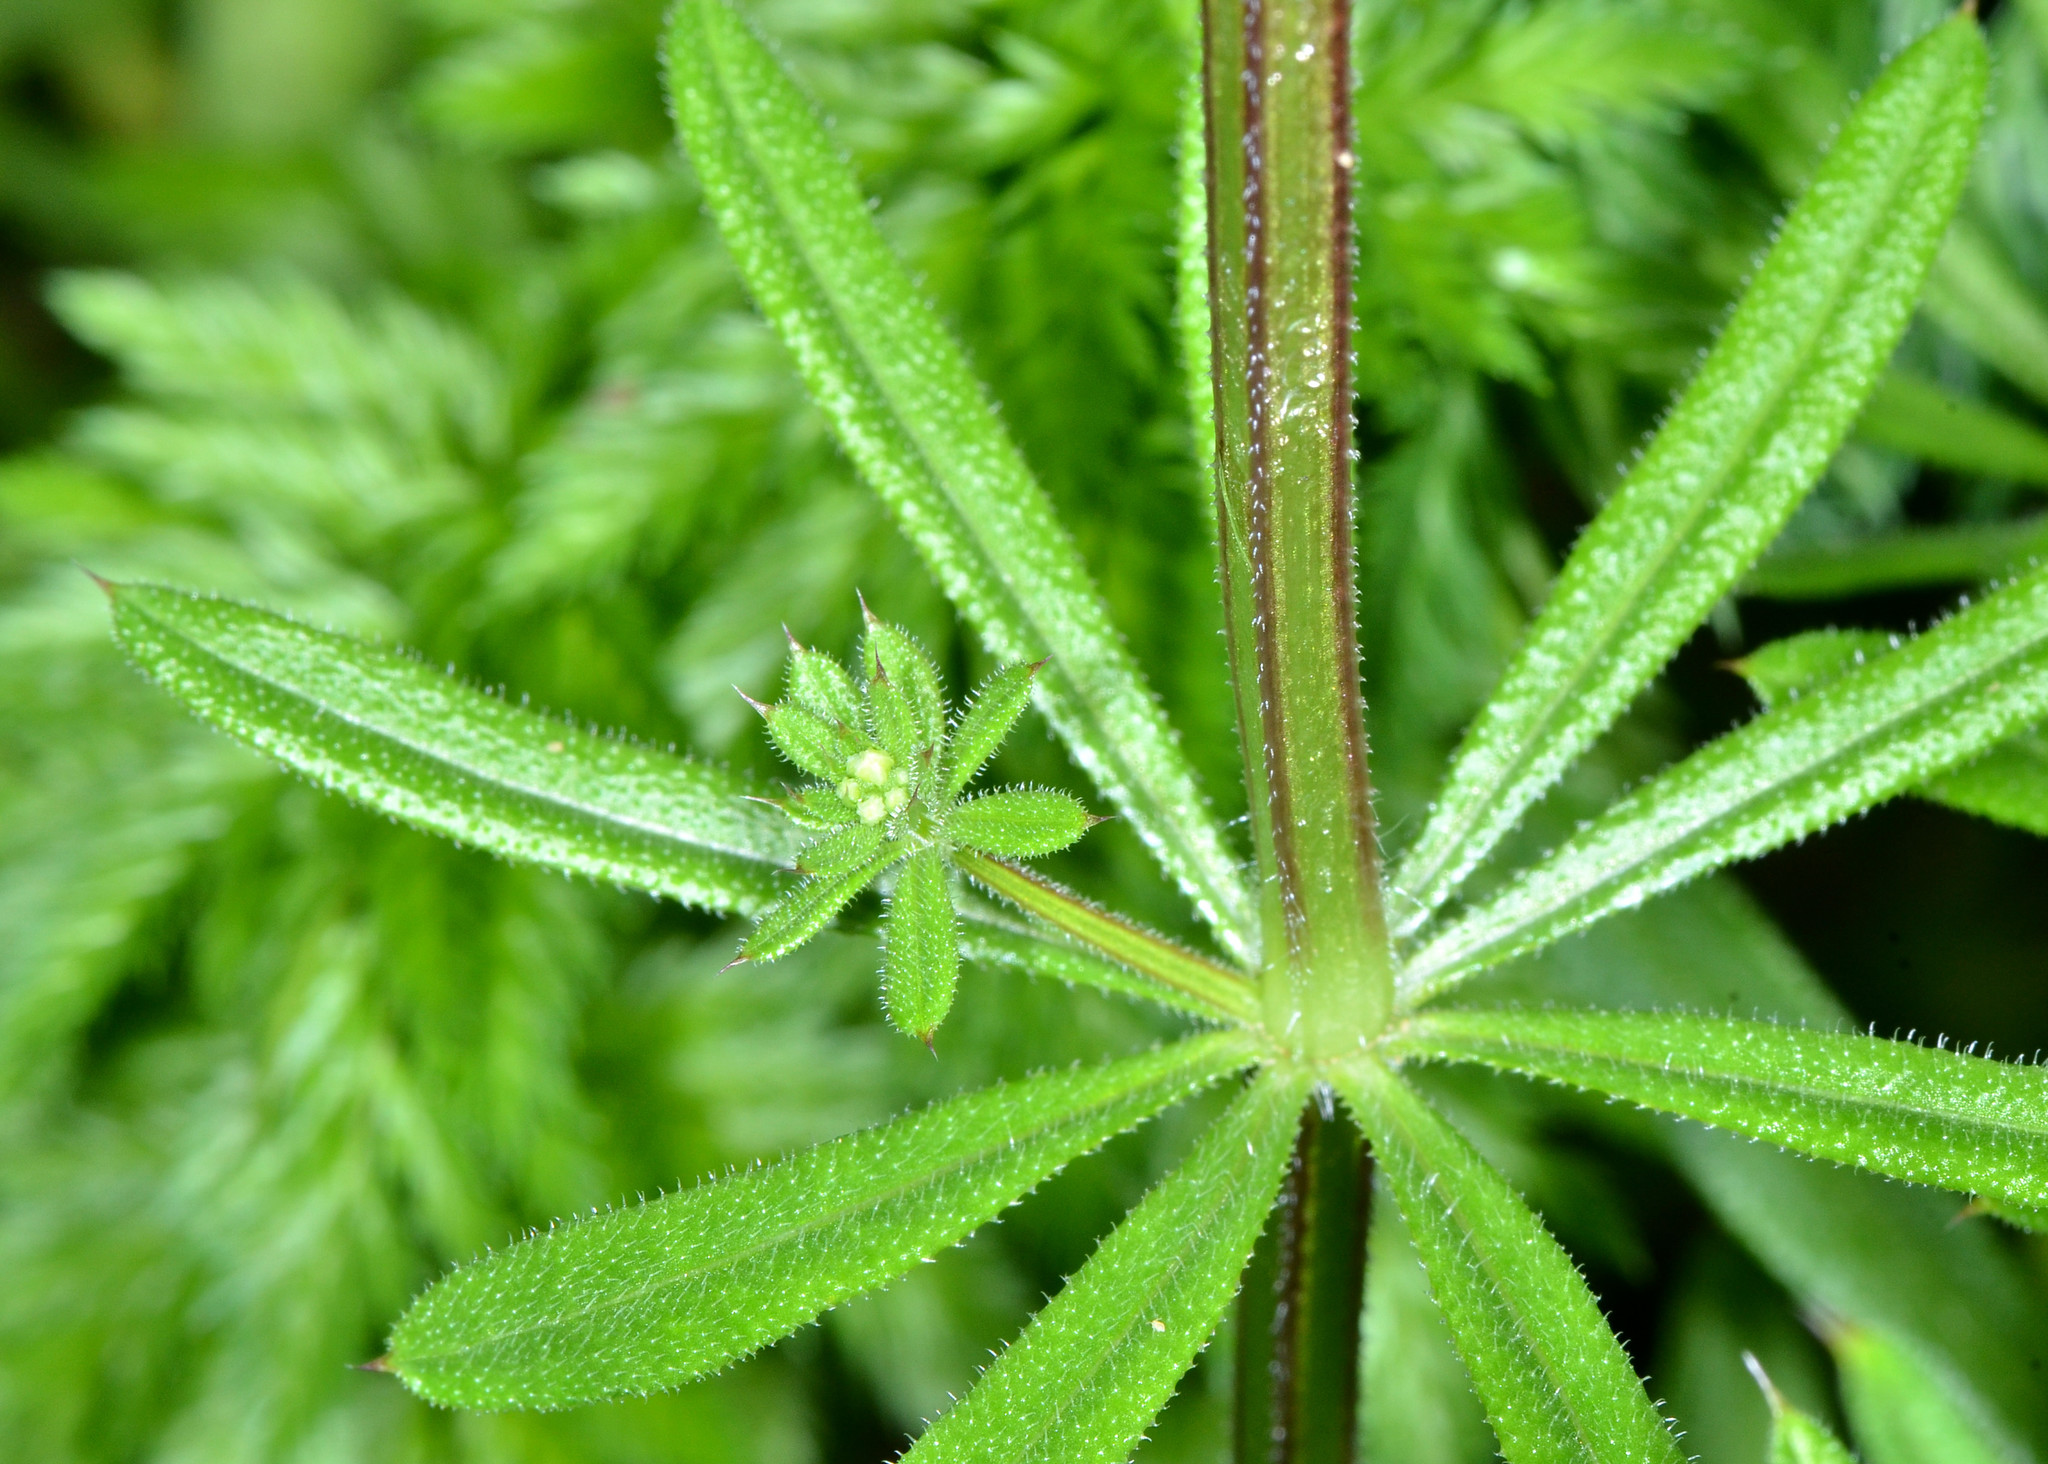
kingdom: Plantae
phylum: Tracheophyta
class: Magnoliopsida
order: Gentianales
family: Rubiaceae
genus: Galium
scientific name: Galium aparine
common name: Cleavers
